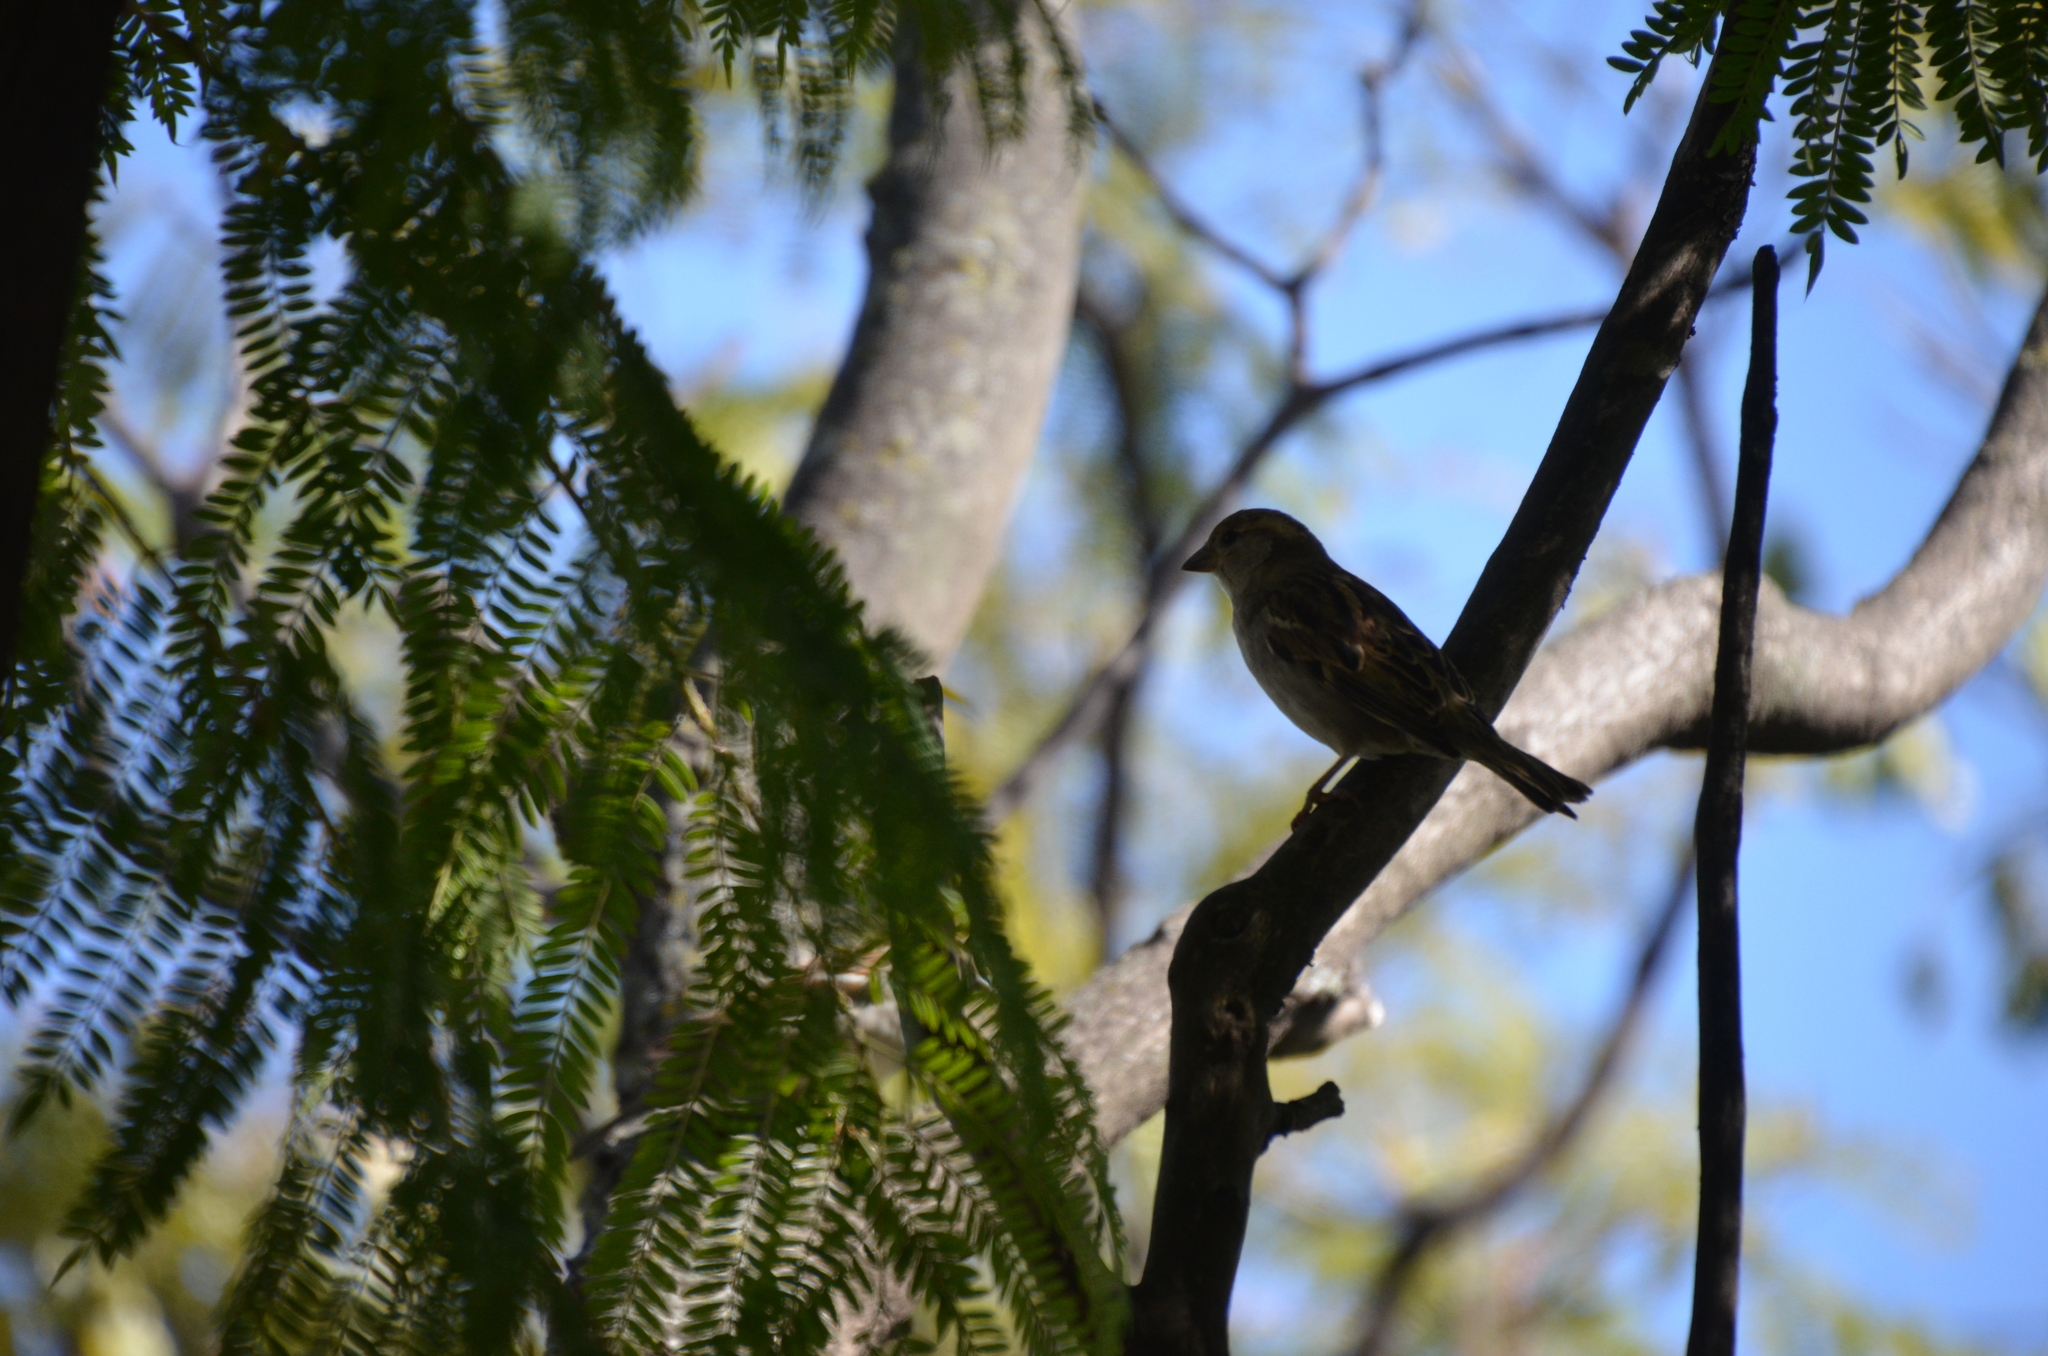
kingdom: Animalia
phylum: Chordata
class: Aves
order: Passeriformes
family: Passeridae
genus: Passer
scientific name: Passer domesticus
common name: House sparrow
